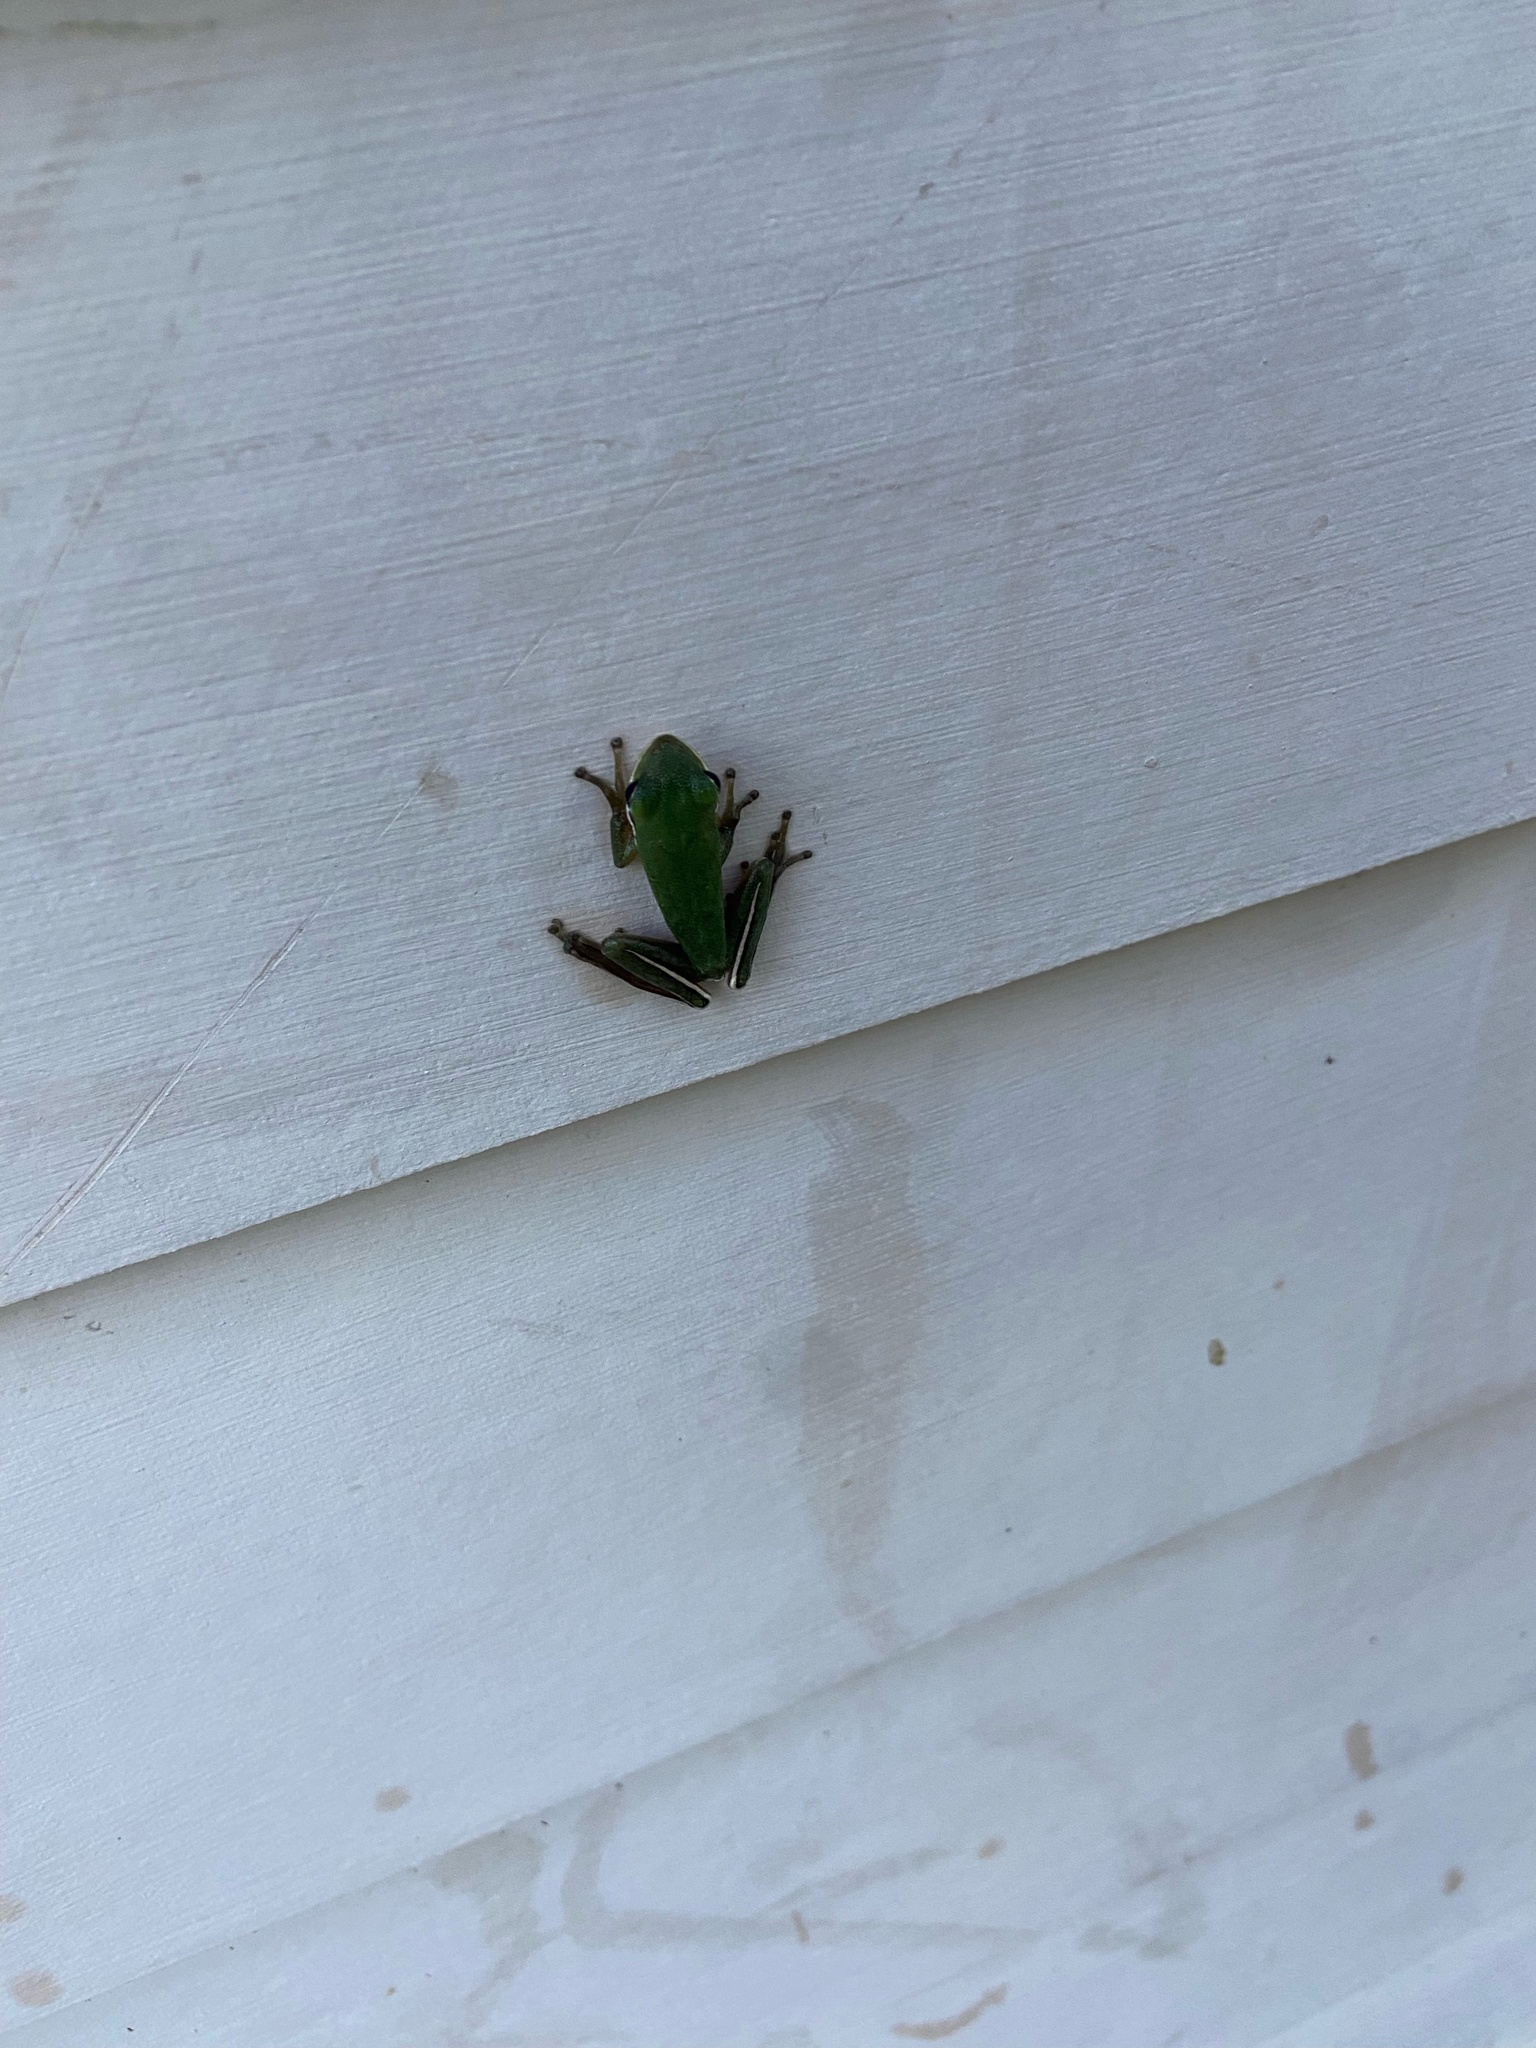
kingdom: Animalia
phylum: Chordata
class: Amphibia
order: Anura
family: Hylidae
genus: Dryophytes
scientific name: Dryophytes cinereus
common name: Green treefrog
